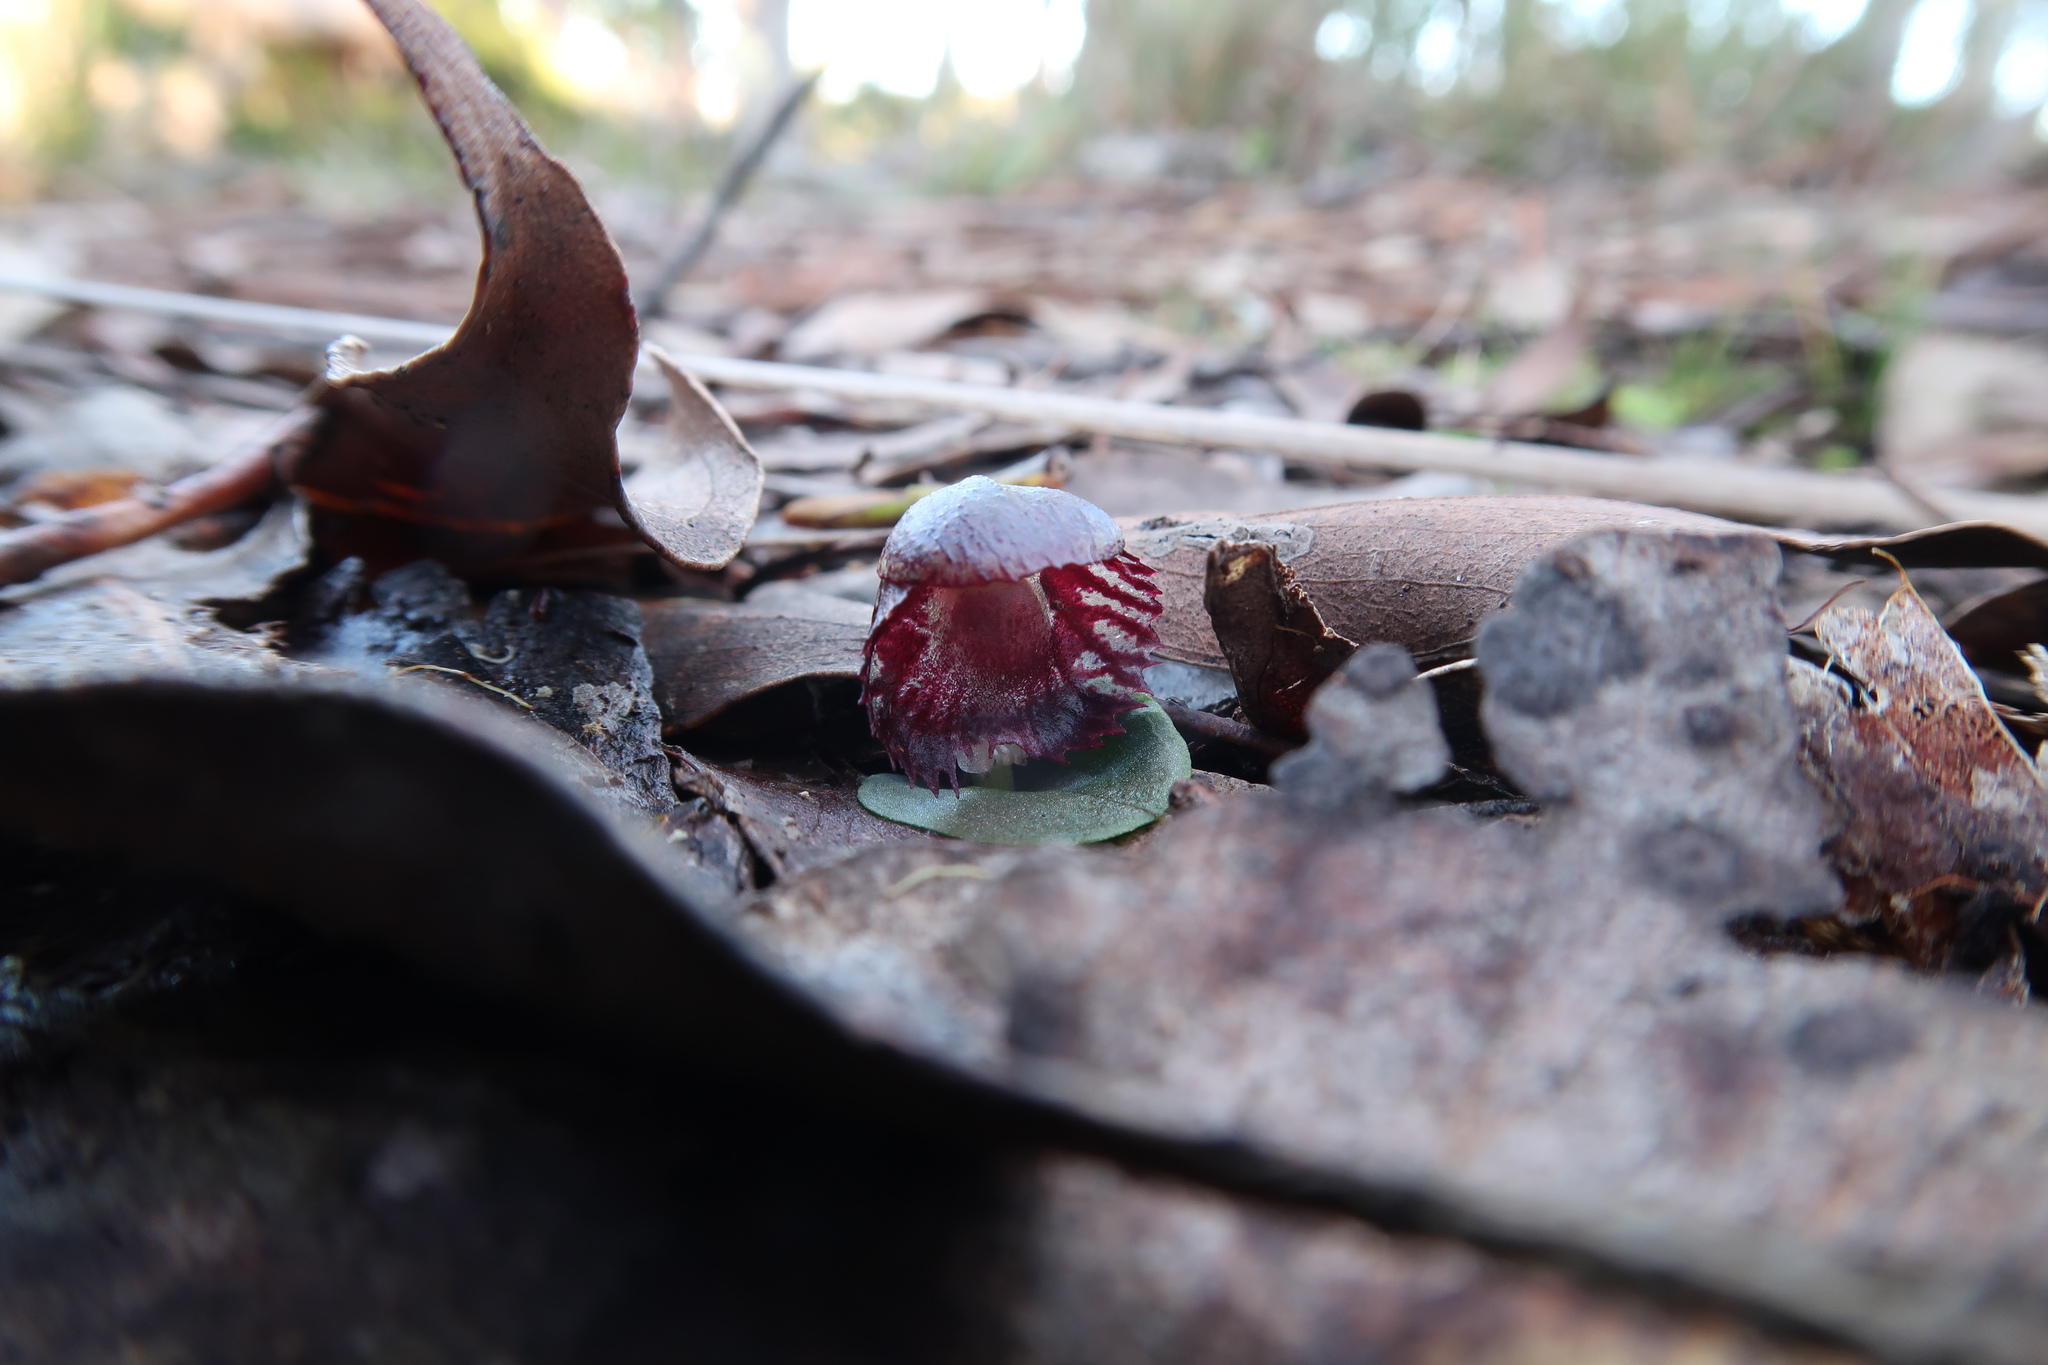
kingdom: Plantae
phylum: Tracheophyta
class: Liliopsida
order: Asparagales
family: Orchidaceae
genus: Corybas
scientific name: Corybas diemenicus
